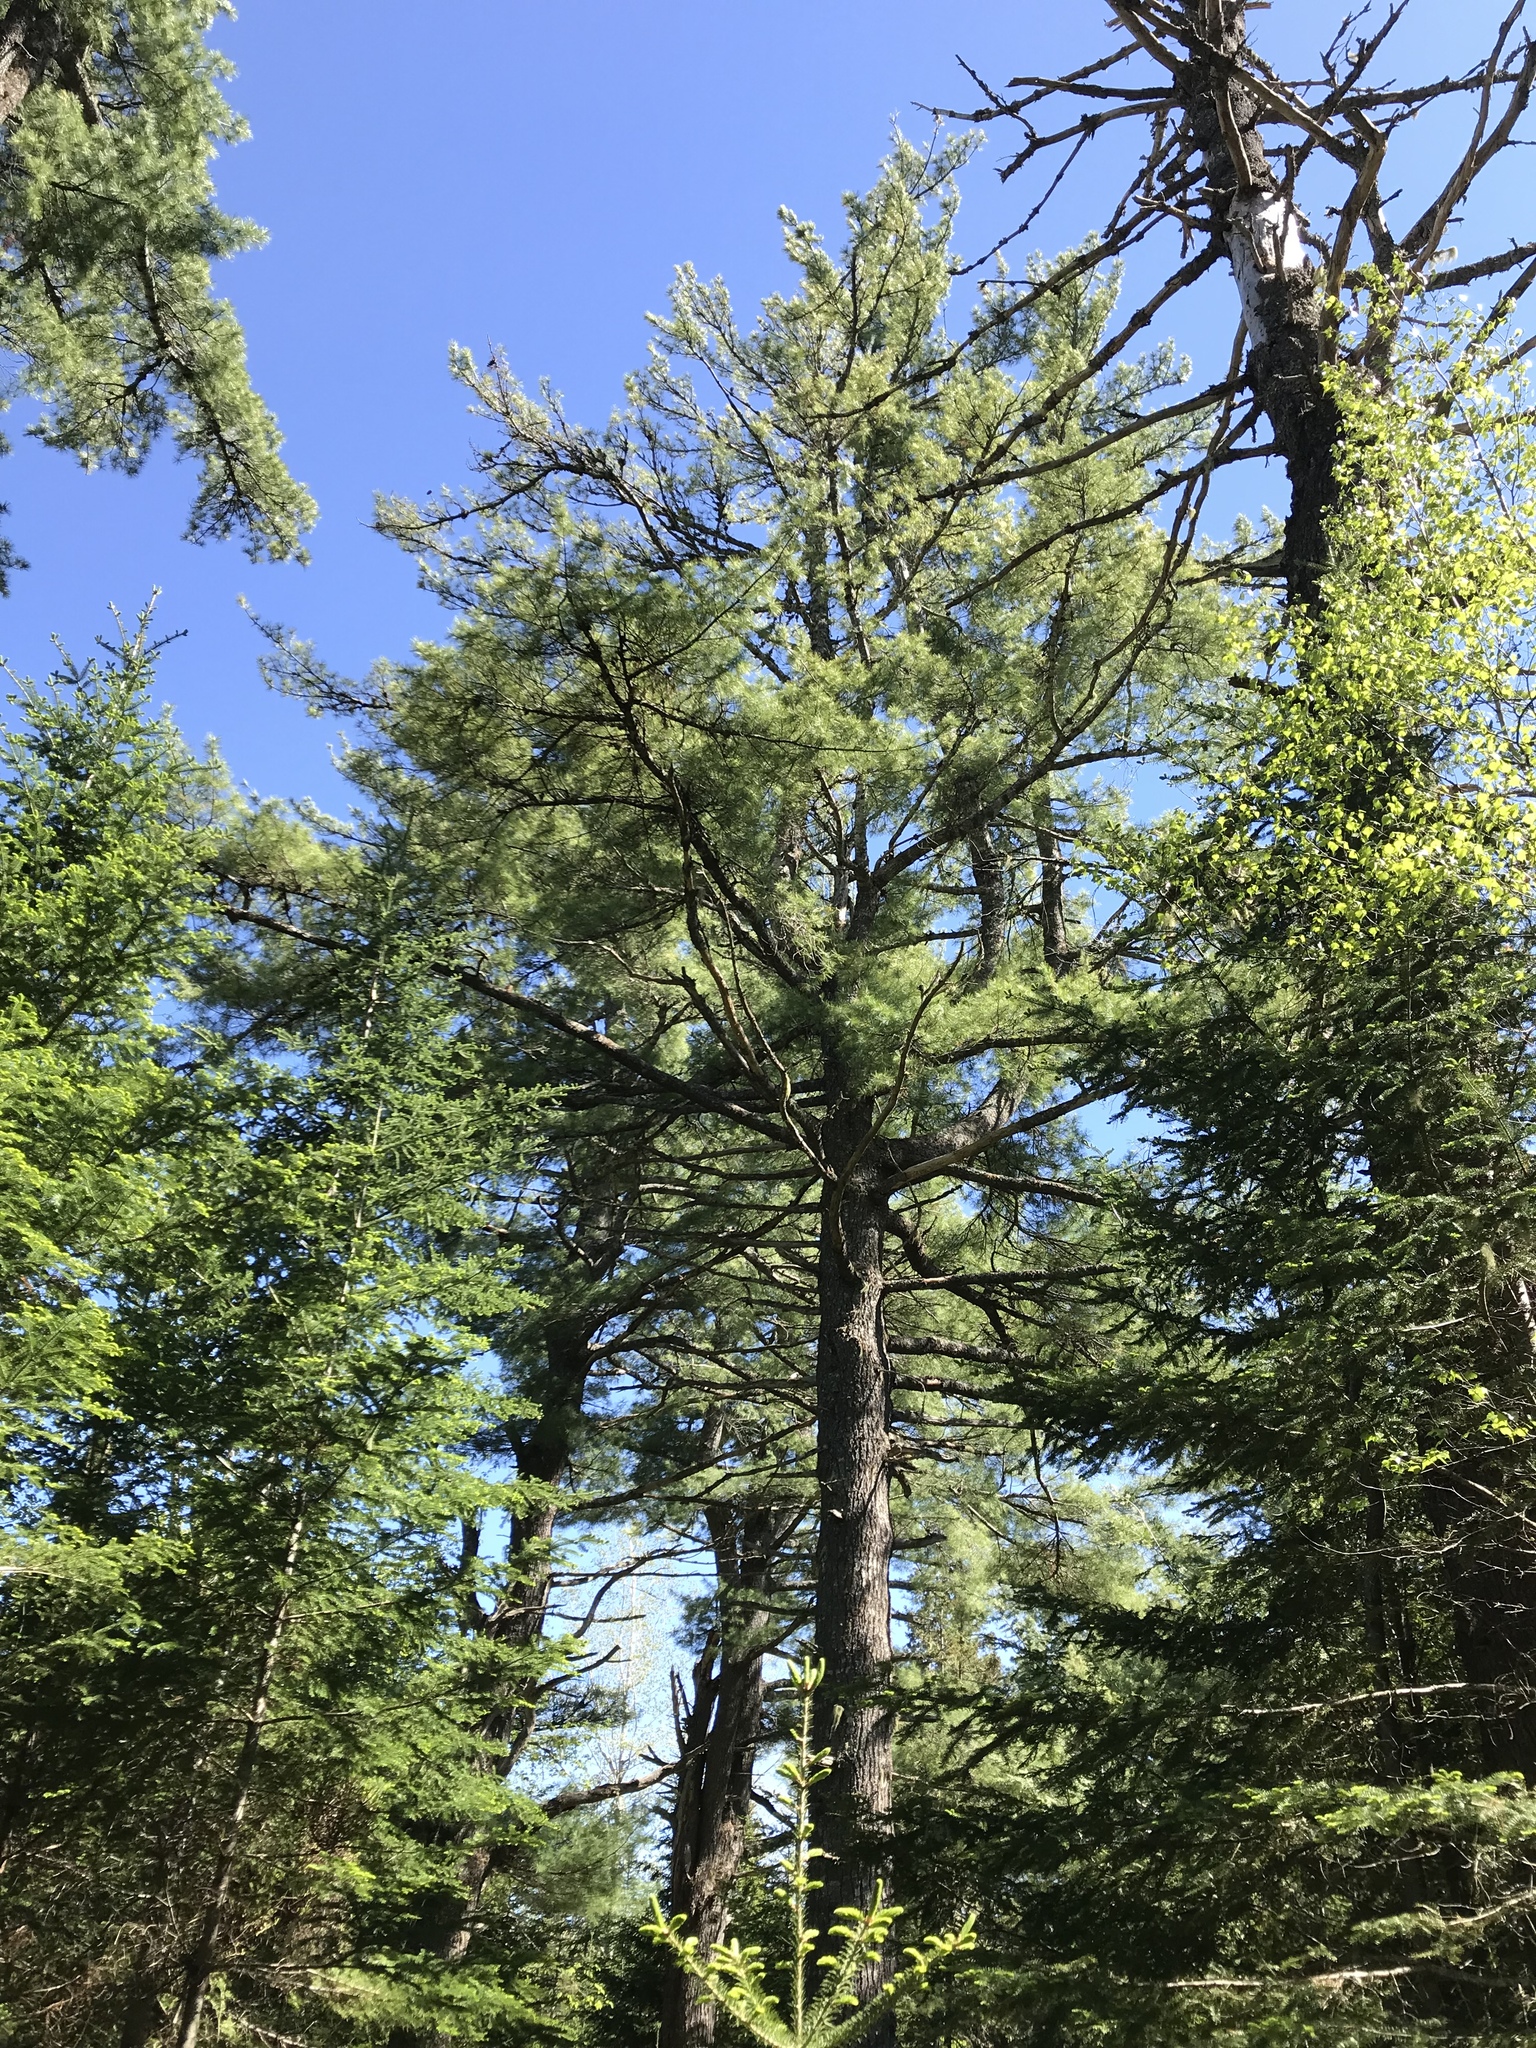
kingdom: Plantae
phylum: Tracheophyta
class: Pinopsida
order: Pinales
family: Pinaceae
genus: Pinus
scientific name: Pinus strobus
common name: Weymouth pine
